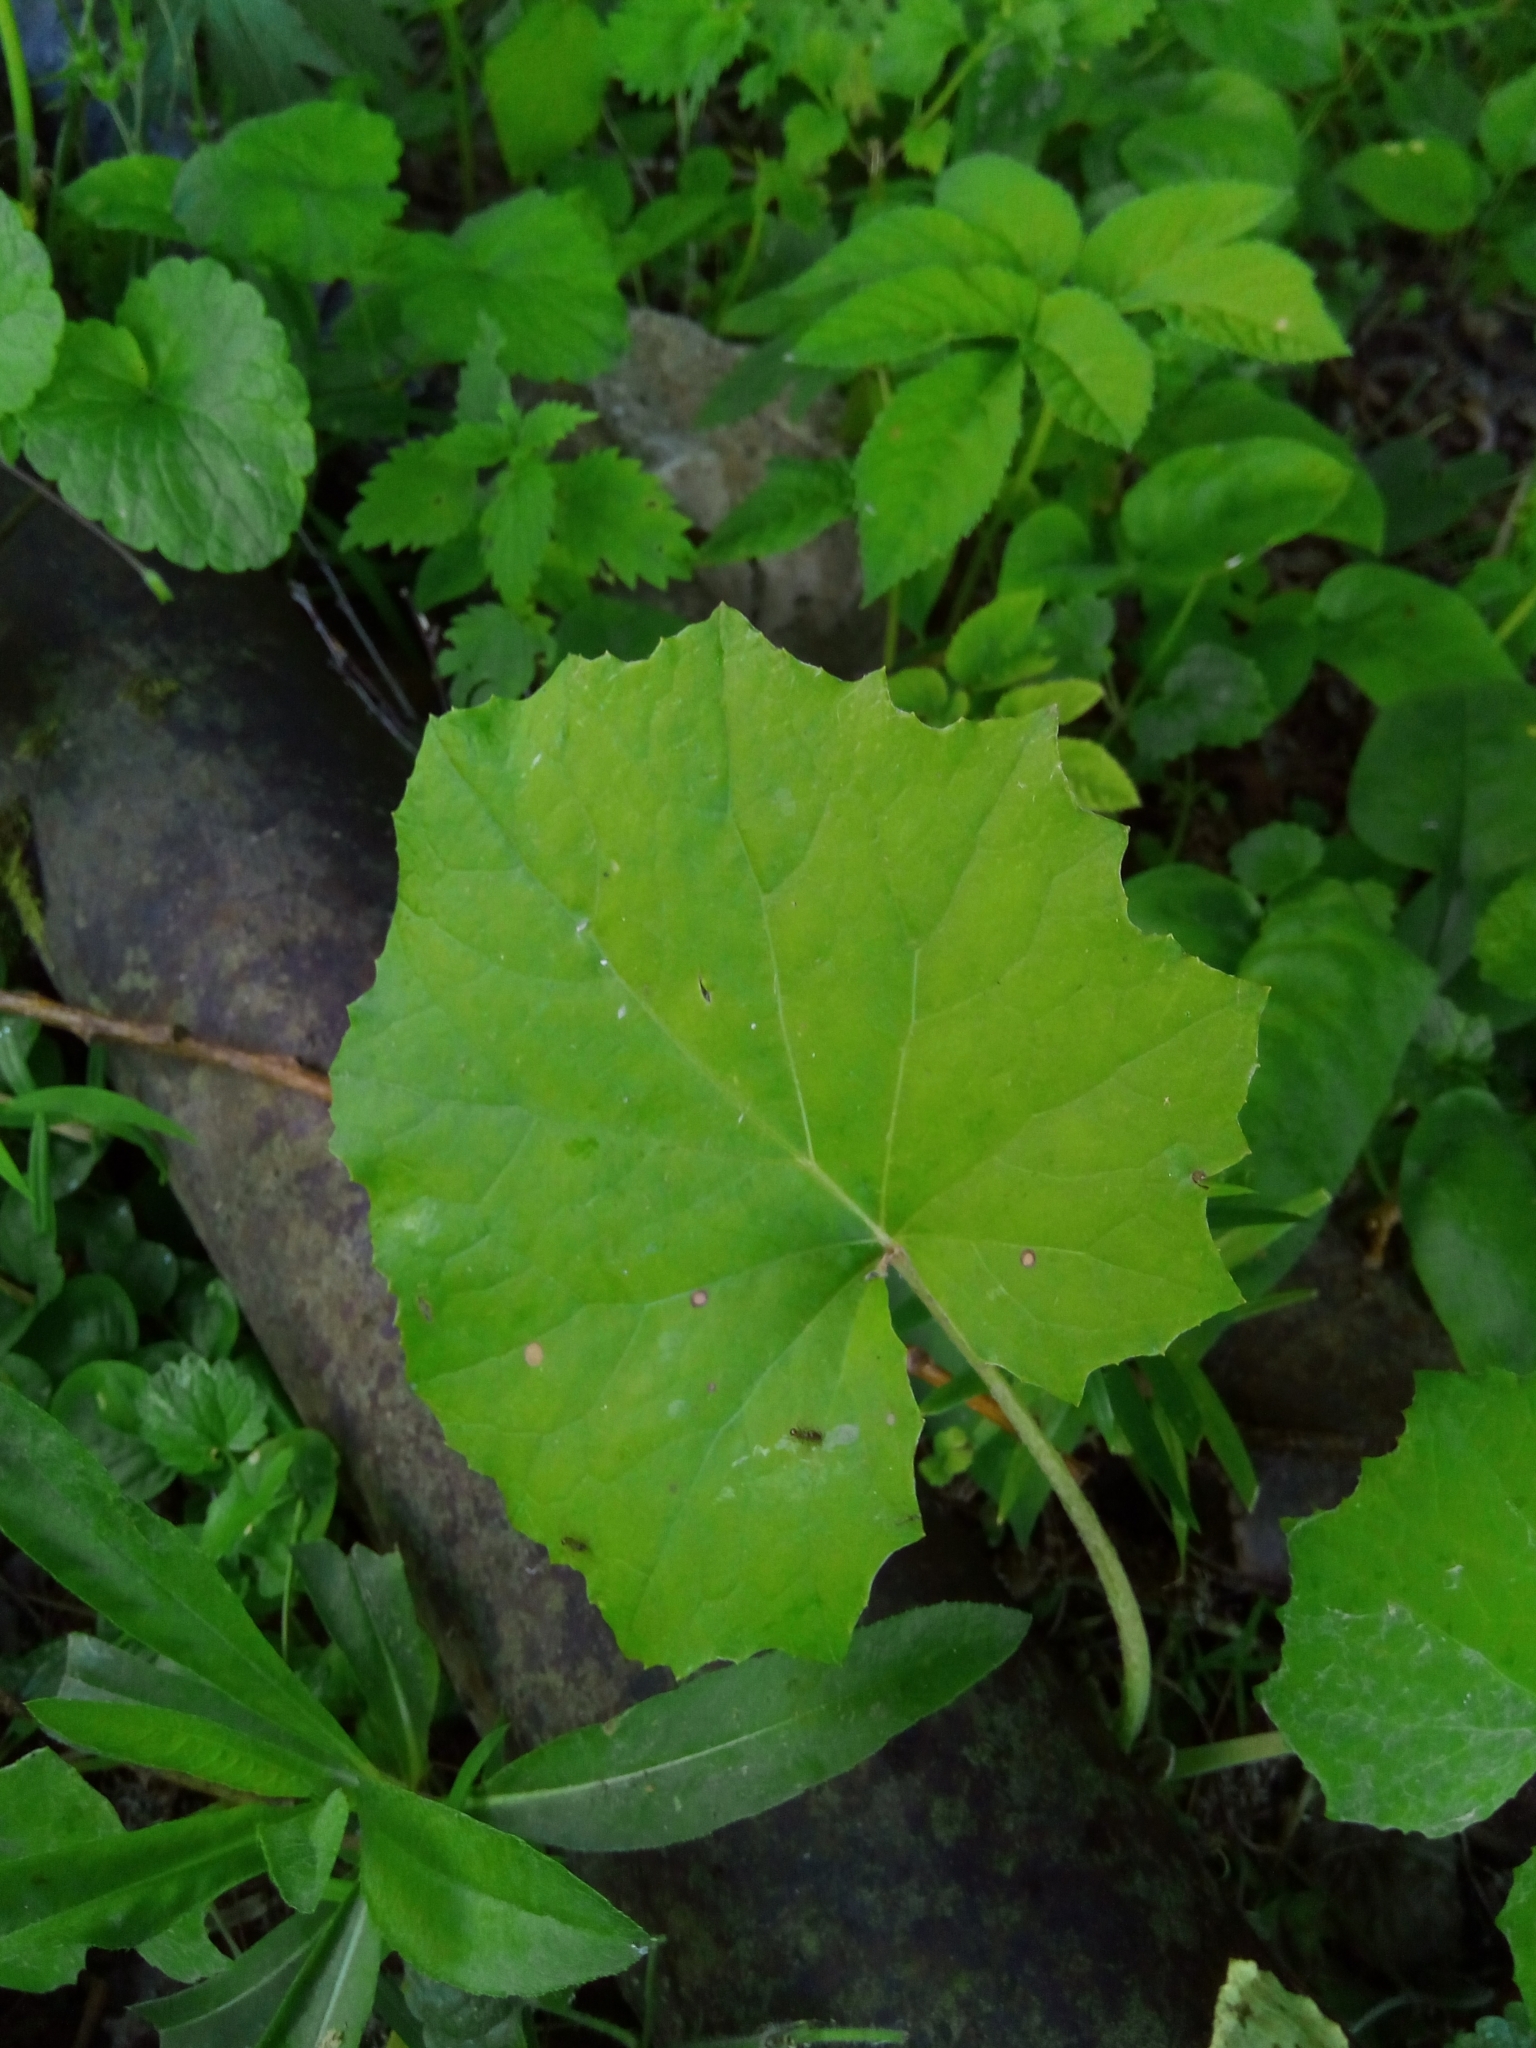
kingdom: Plantae
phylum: Tracheophyta
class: Magnoliopsida
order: Asterales
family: Asteraceae
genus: Tussilago
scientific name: Tussilago farfara
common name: Coltsfoot
